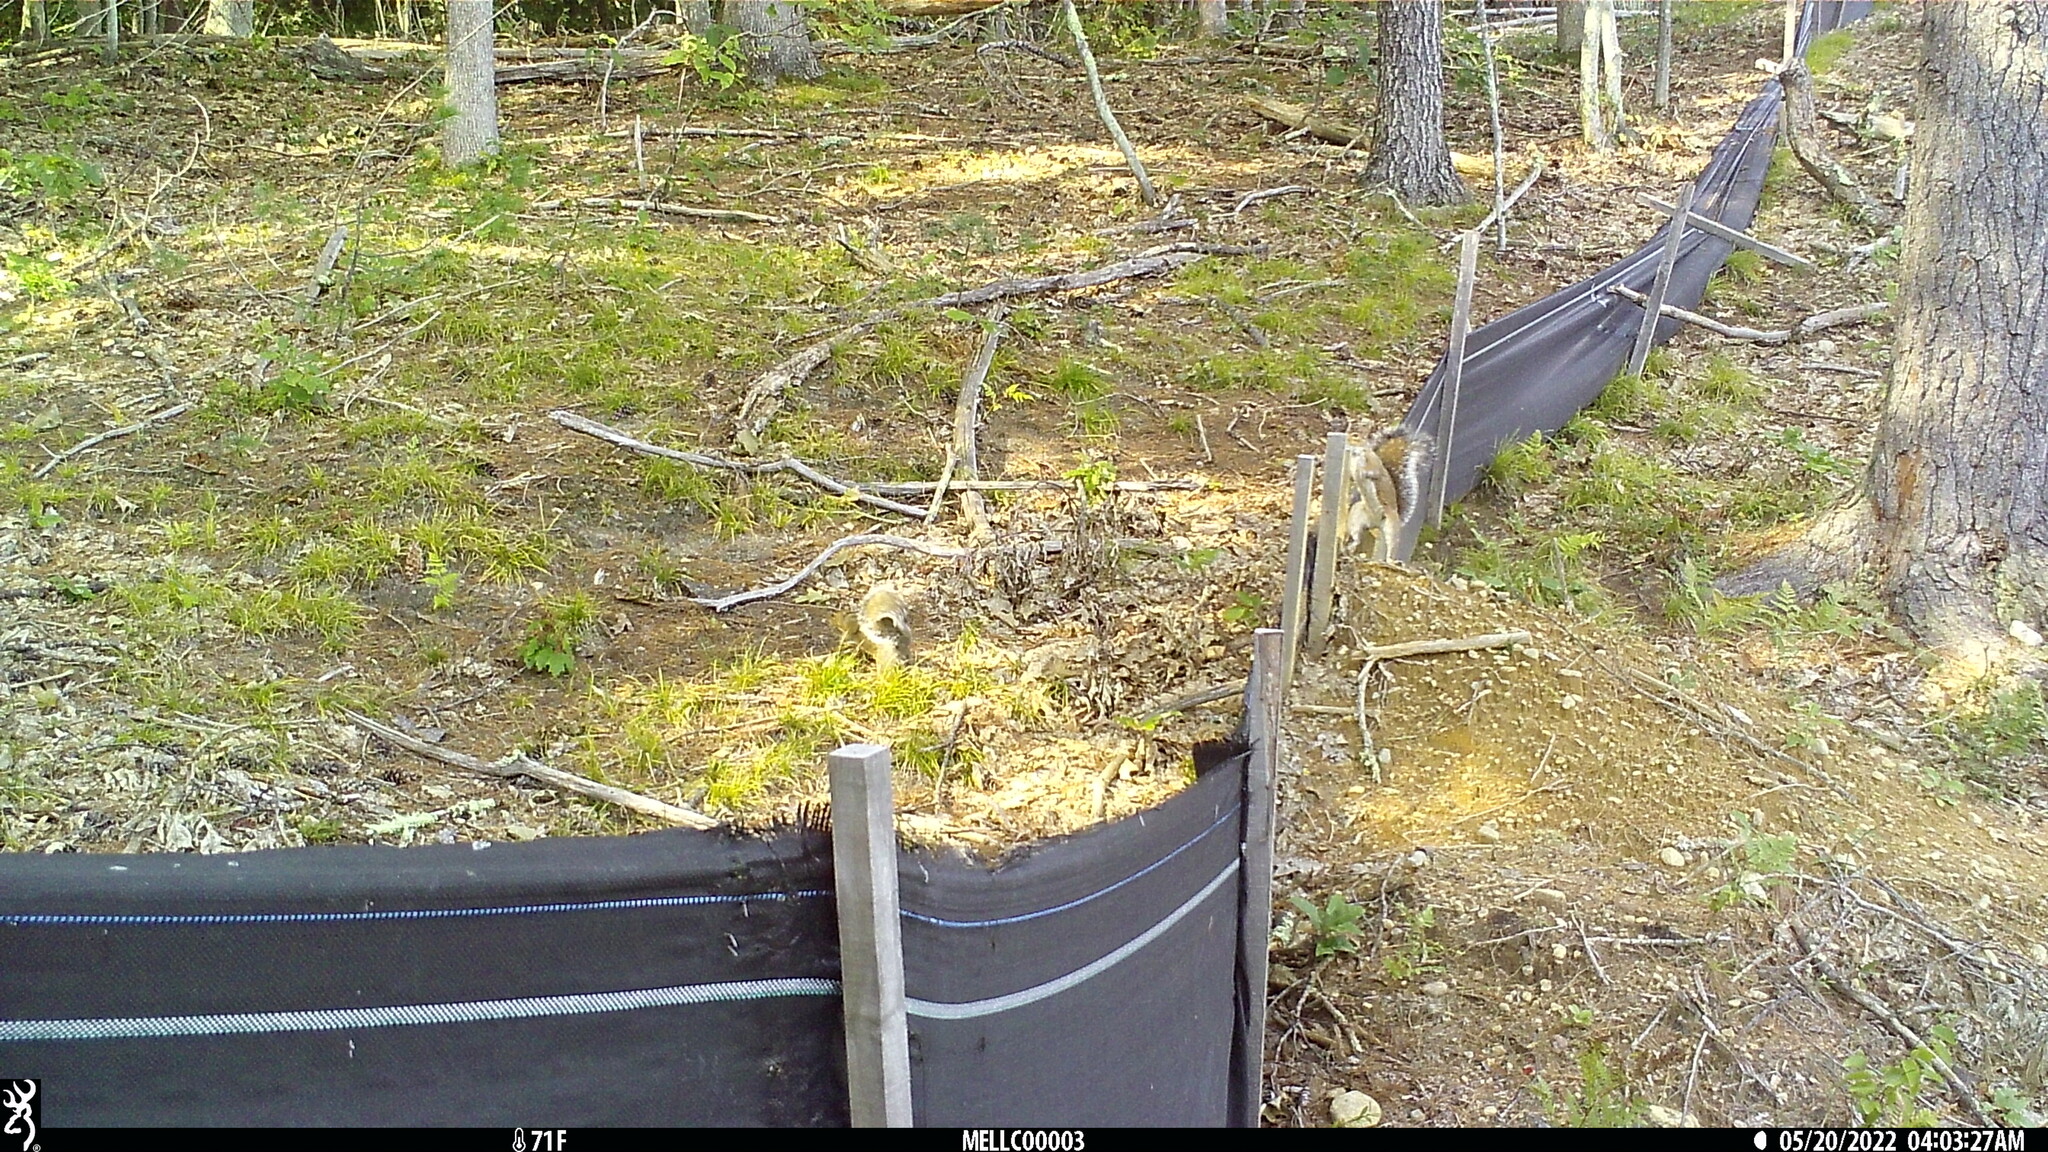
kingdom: Animalia
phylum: Chordata
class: Mammalia
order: Rodentia
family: Sciuridae
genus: Sciurus
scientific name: Sciurus carolinensis
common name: Eastern gray squirrel
